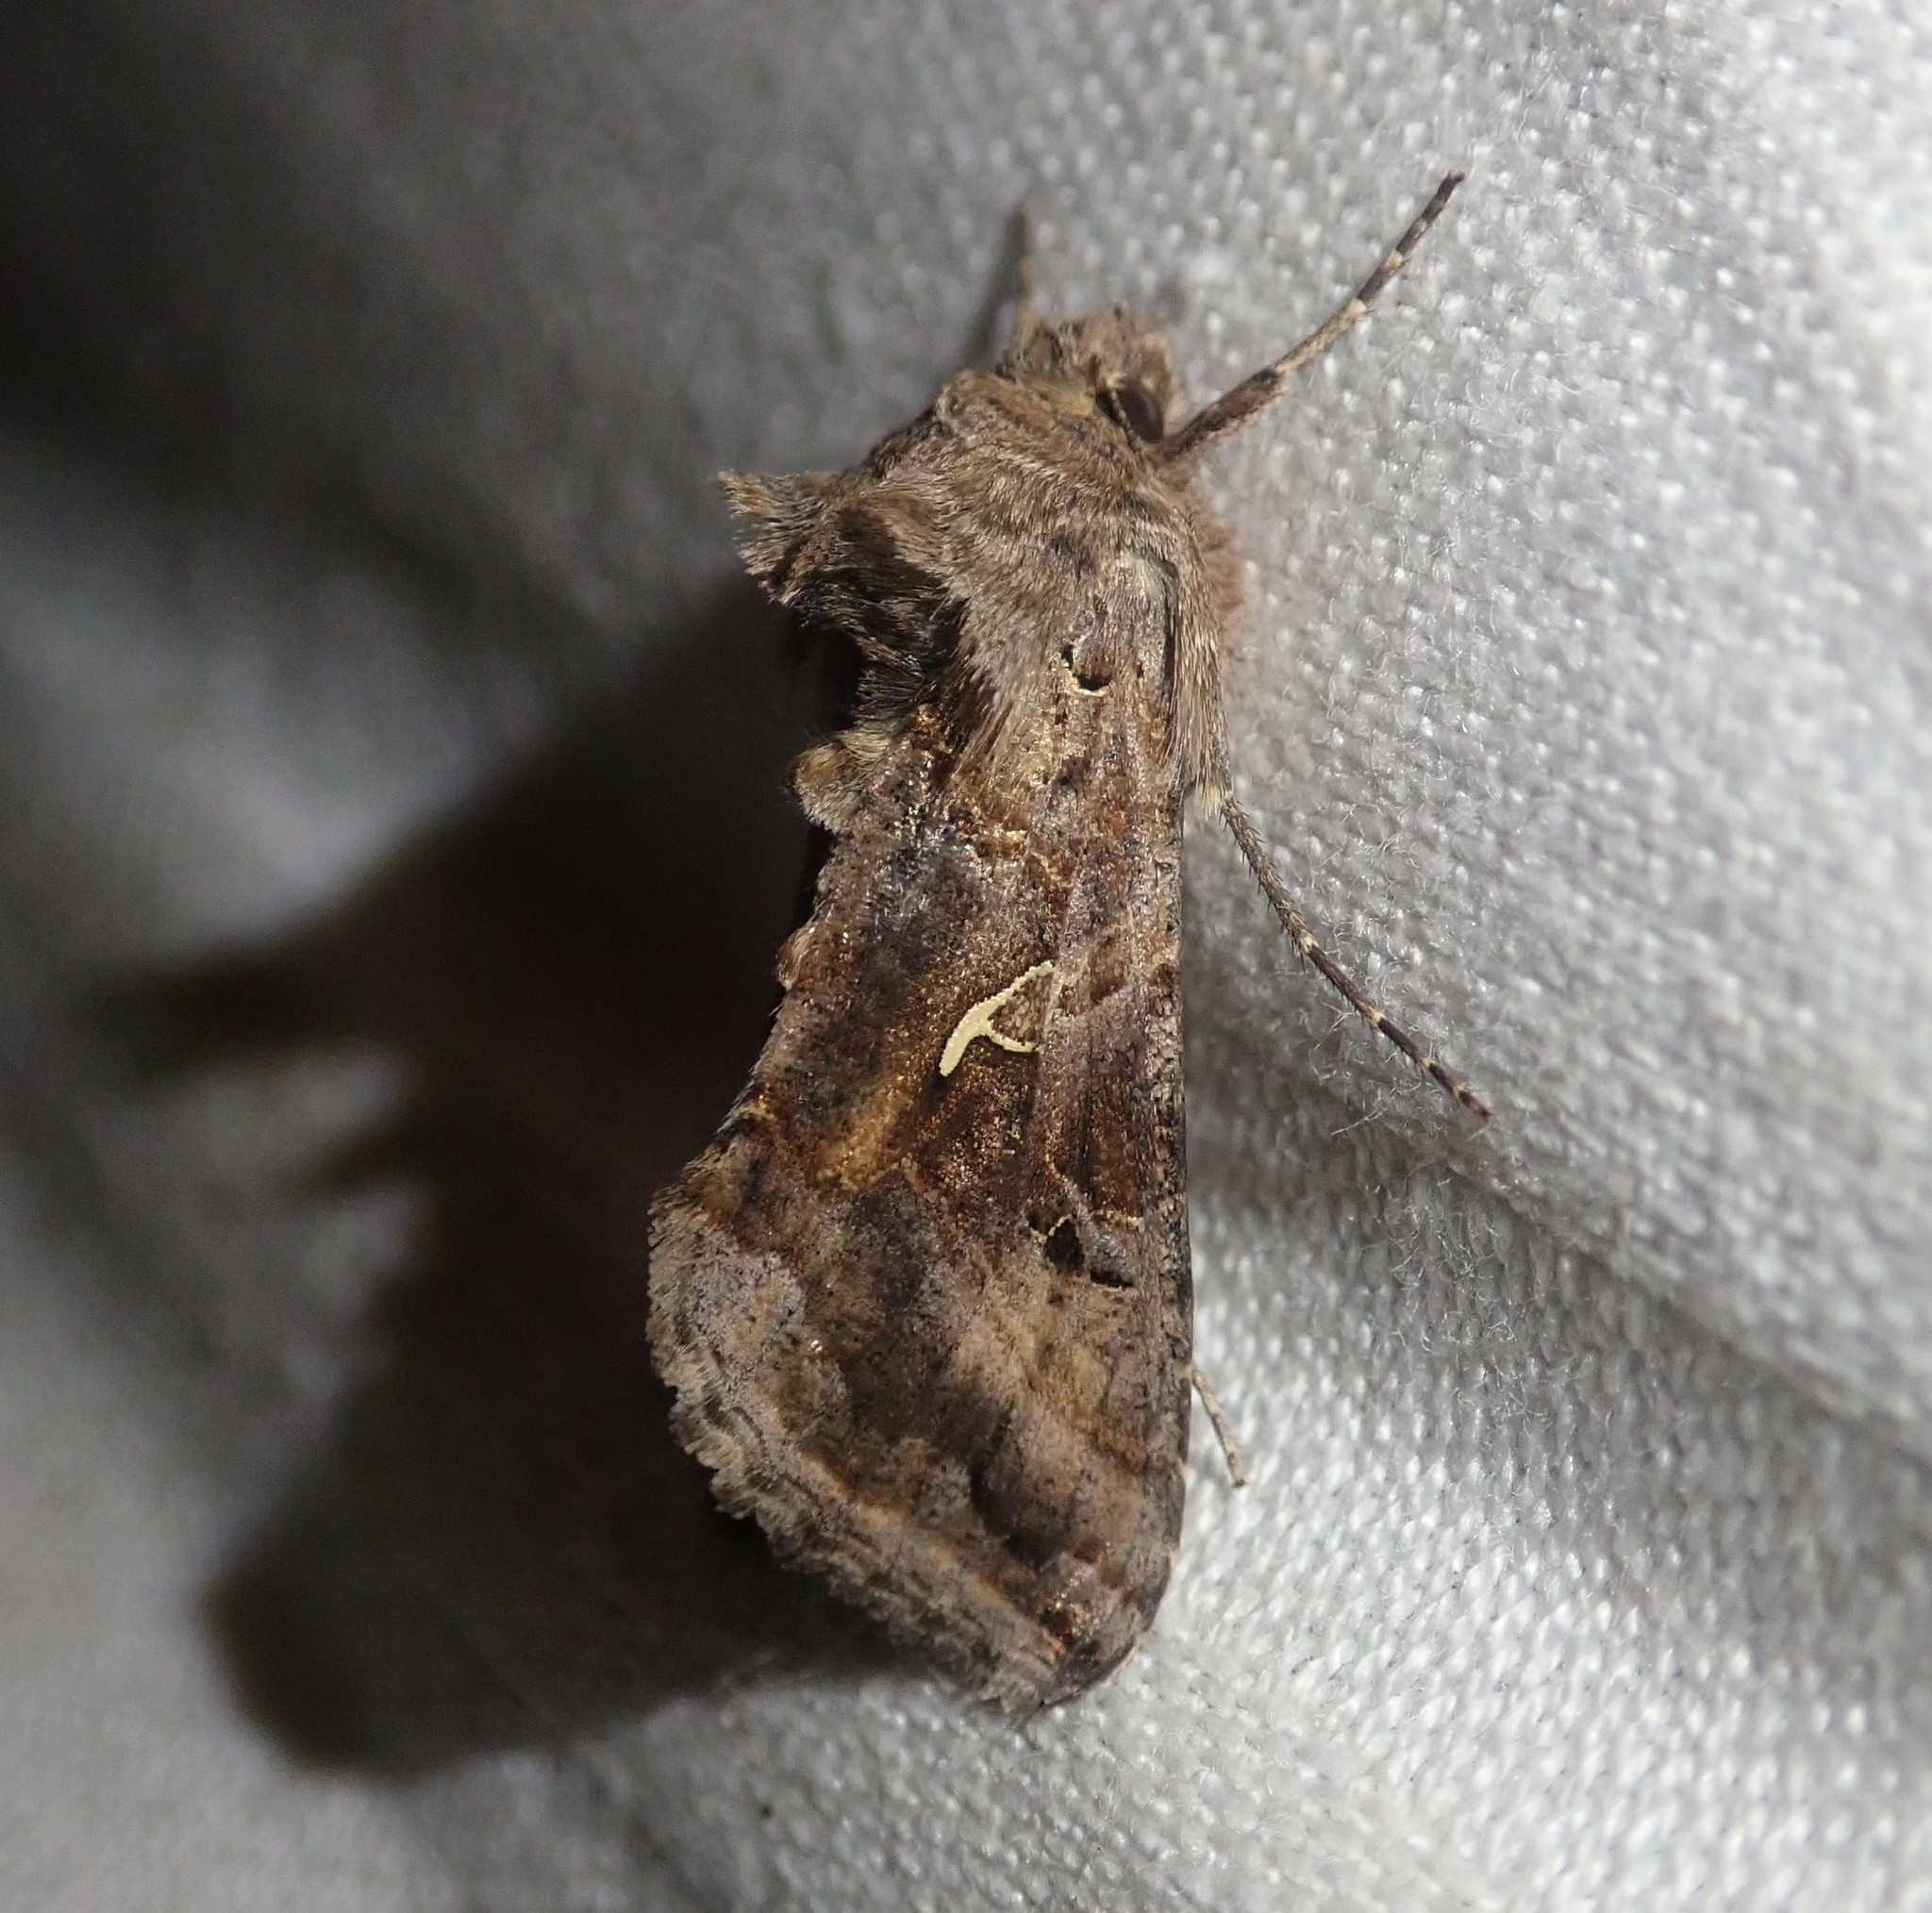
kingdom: Animalia
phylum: Arthropoda
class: Insecta
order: Lepidoptera
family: Noctuidae
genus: Autographa
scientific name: Autographa gamma
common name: Silver y
